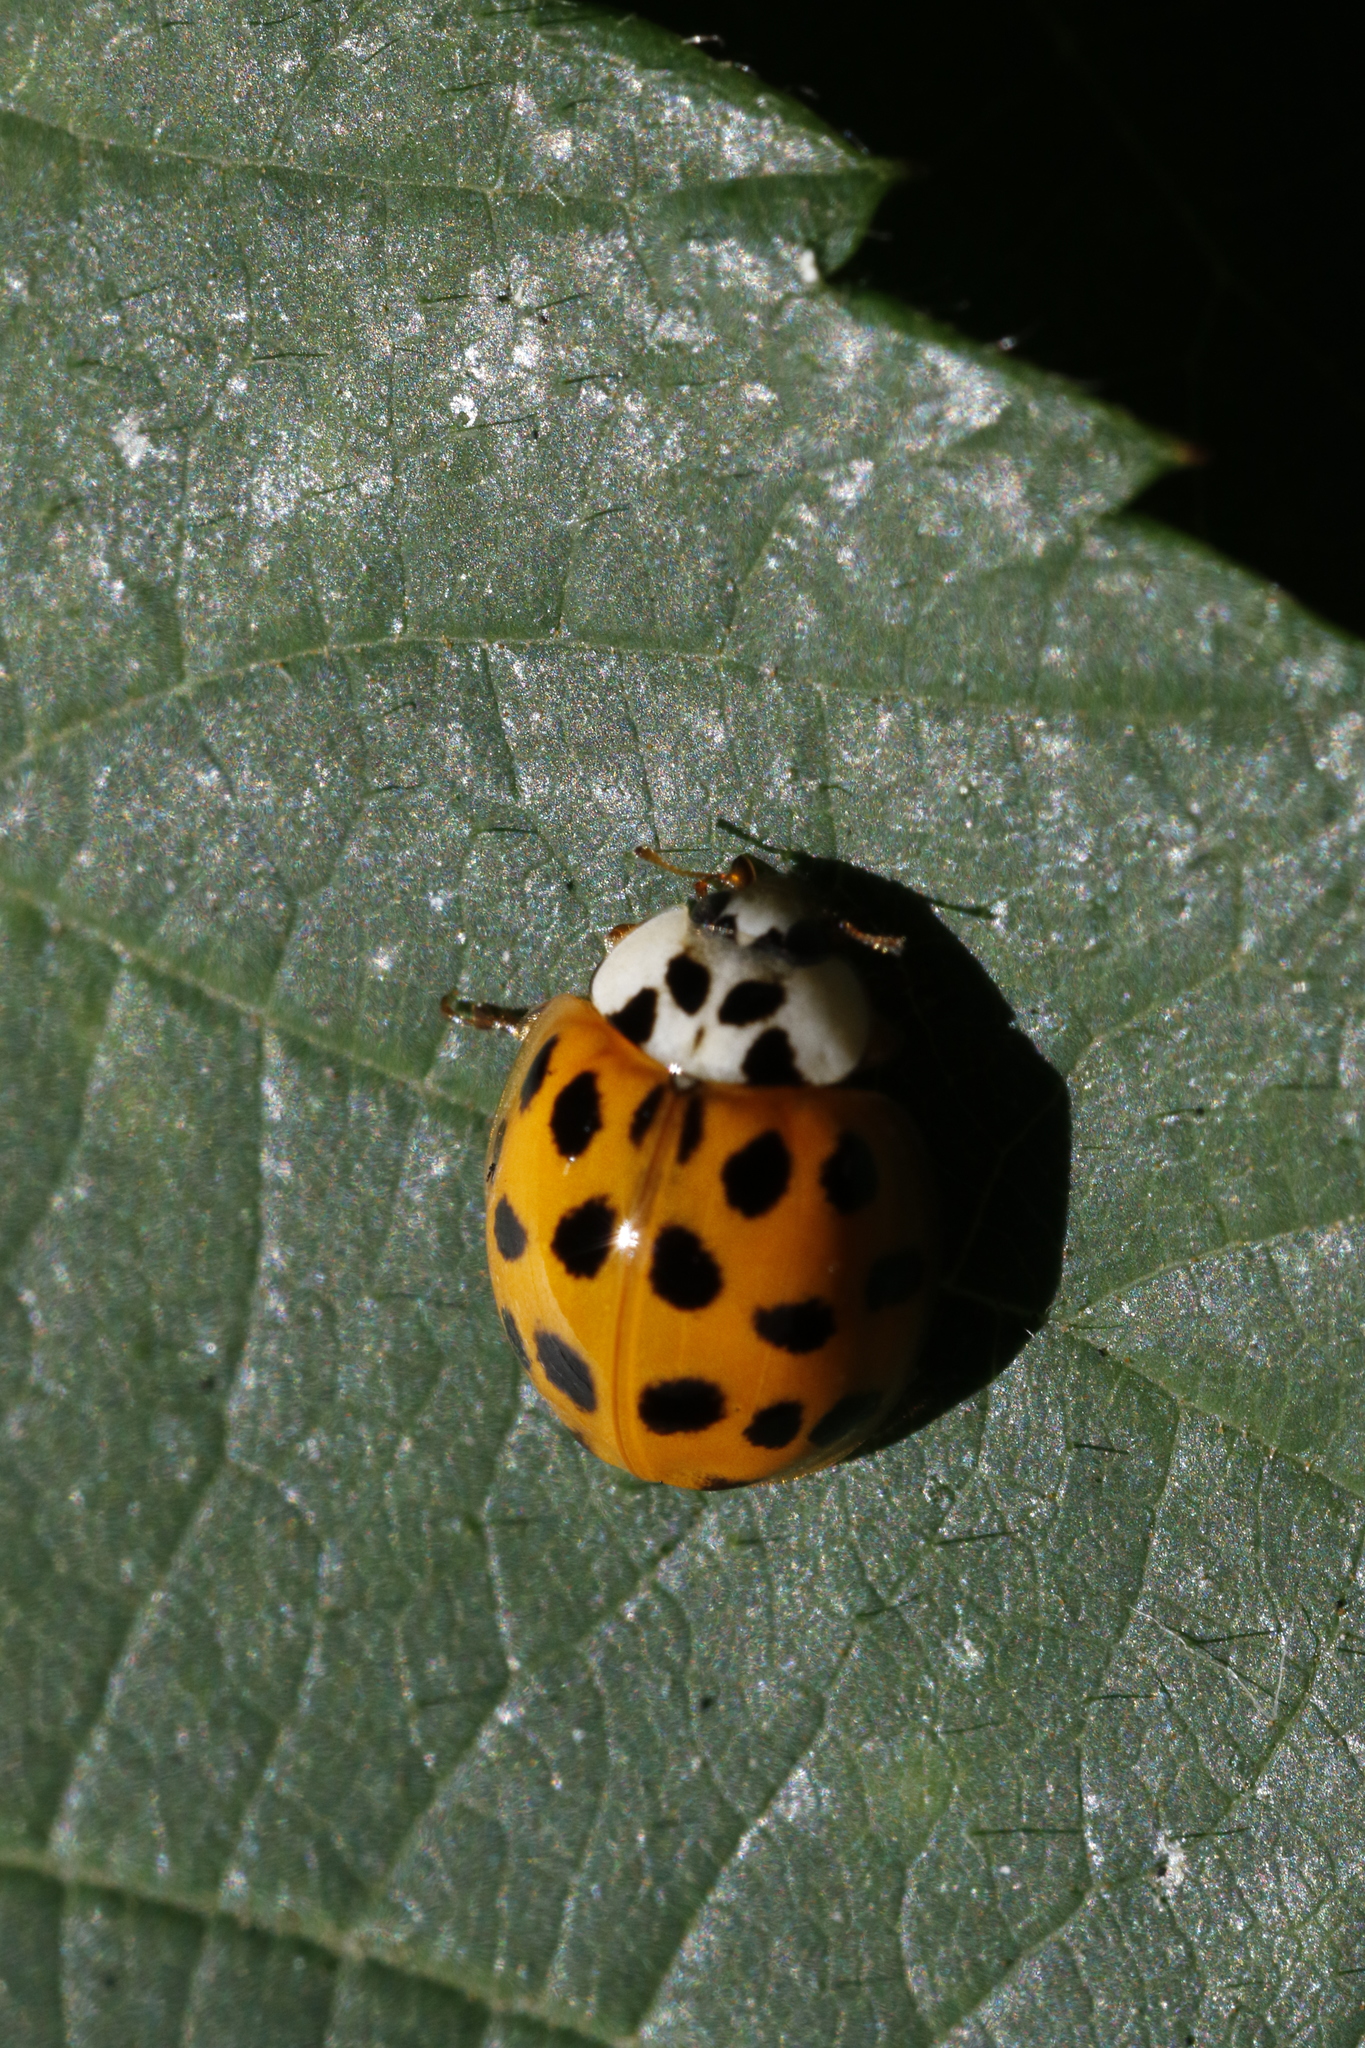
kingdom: Animalia
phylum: Arthropoda
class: Insecta
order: Coleoptera
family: Coccinellidae
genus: Harmonia
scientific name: Harmonia axyridis
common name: Harlequin ladybird
